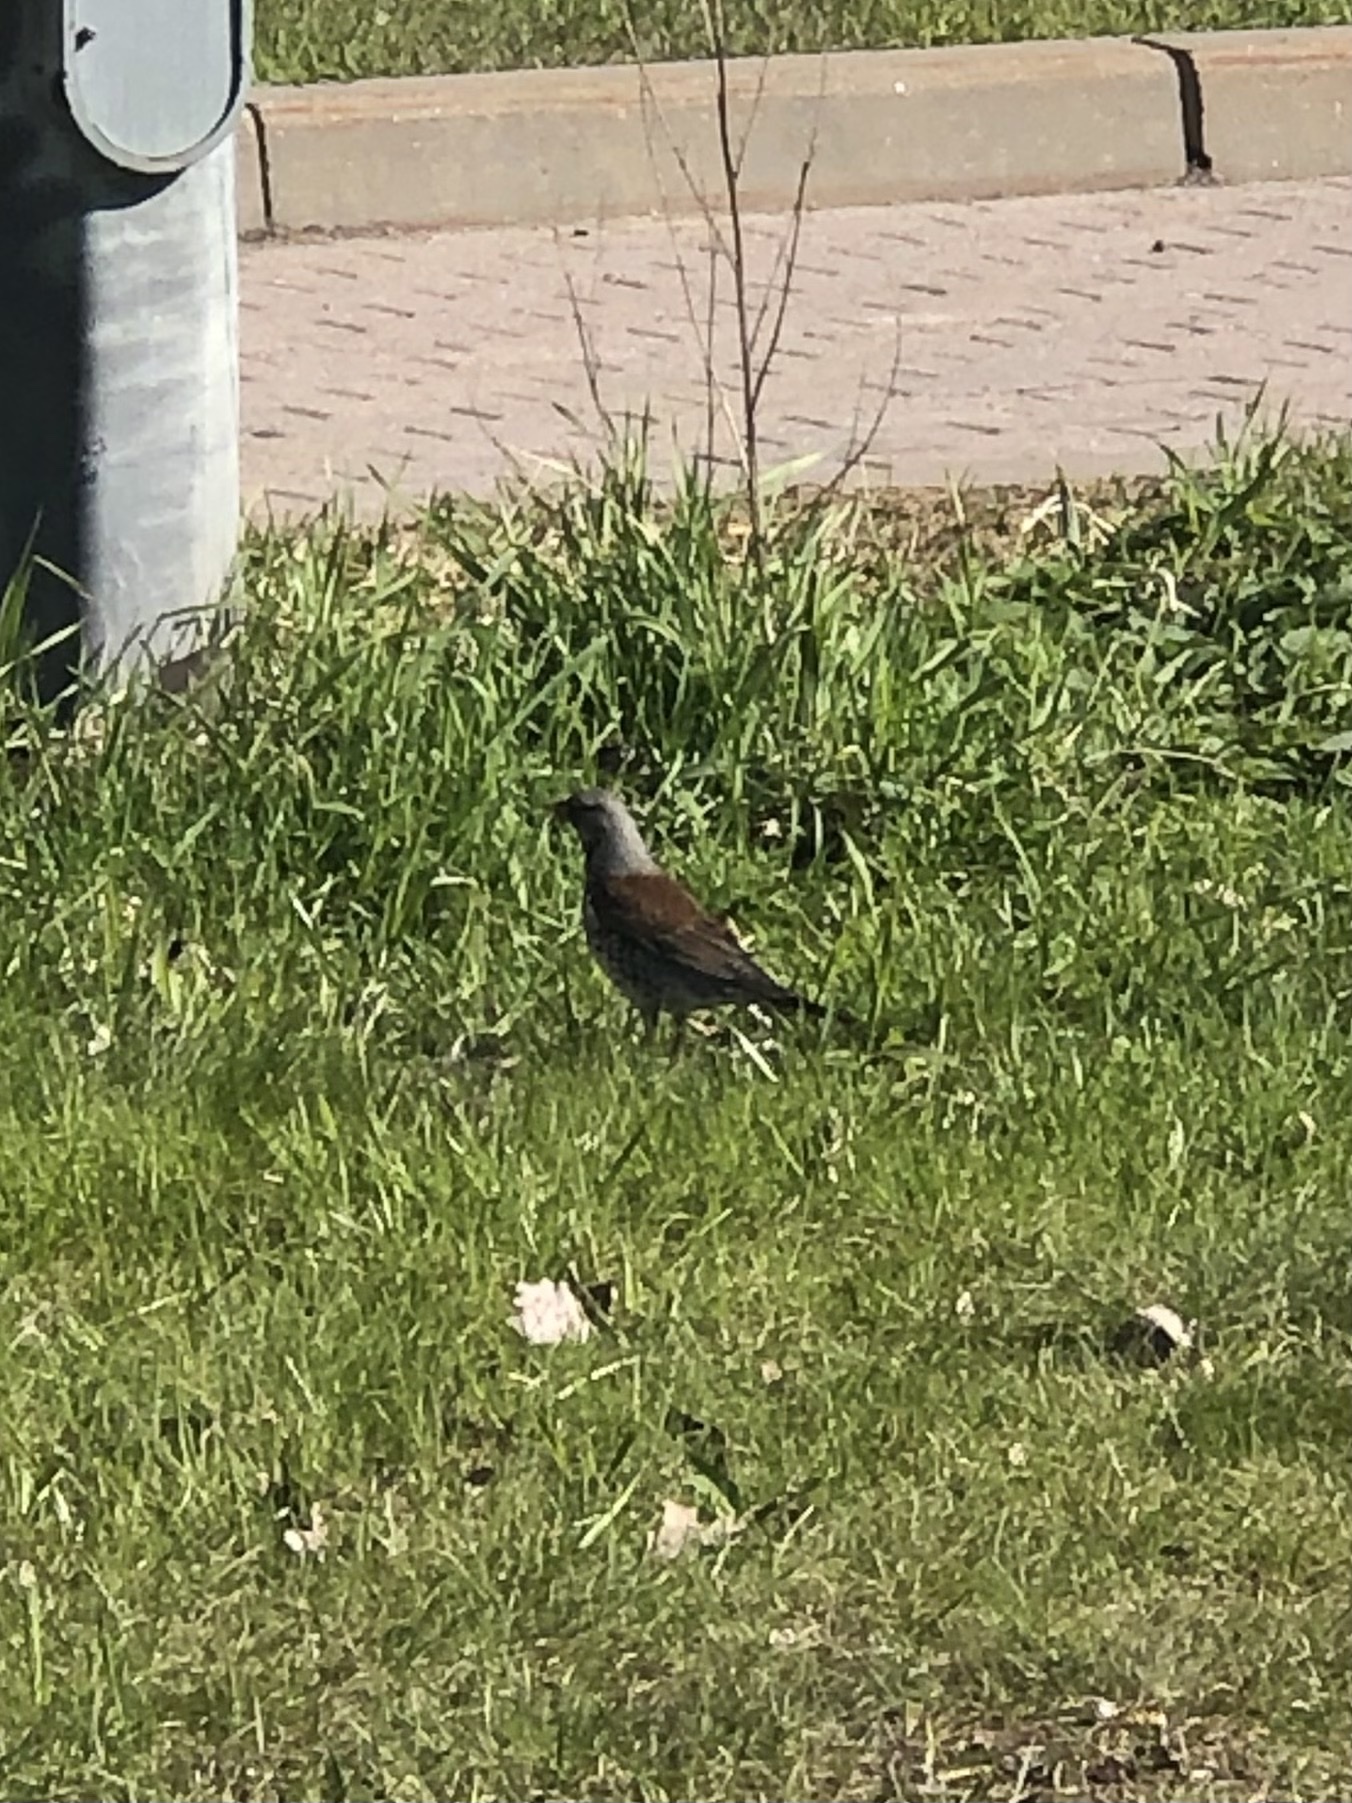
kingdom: Animalia
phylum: Chordata
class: Aves
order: Passeriformes
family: Turdidae
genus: Turdus
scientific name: Turdus pilaris
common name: Fieldfare
